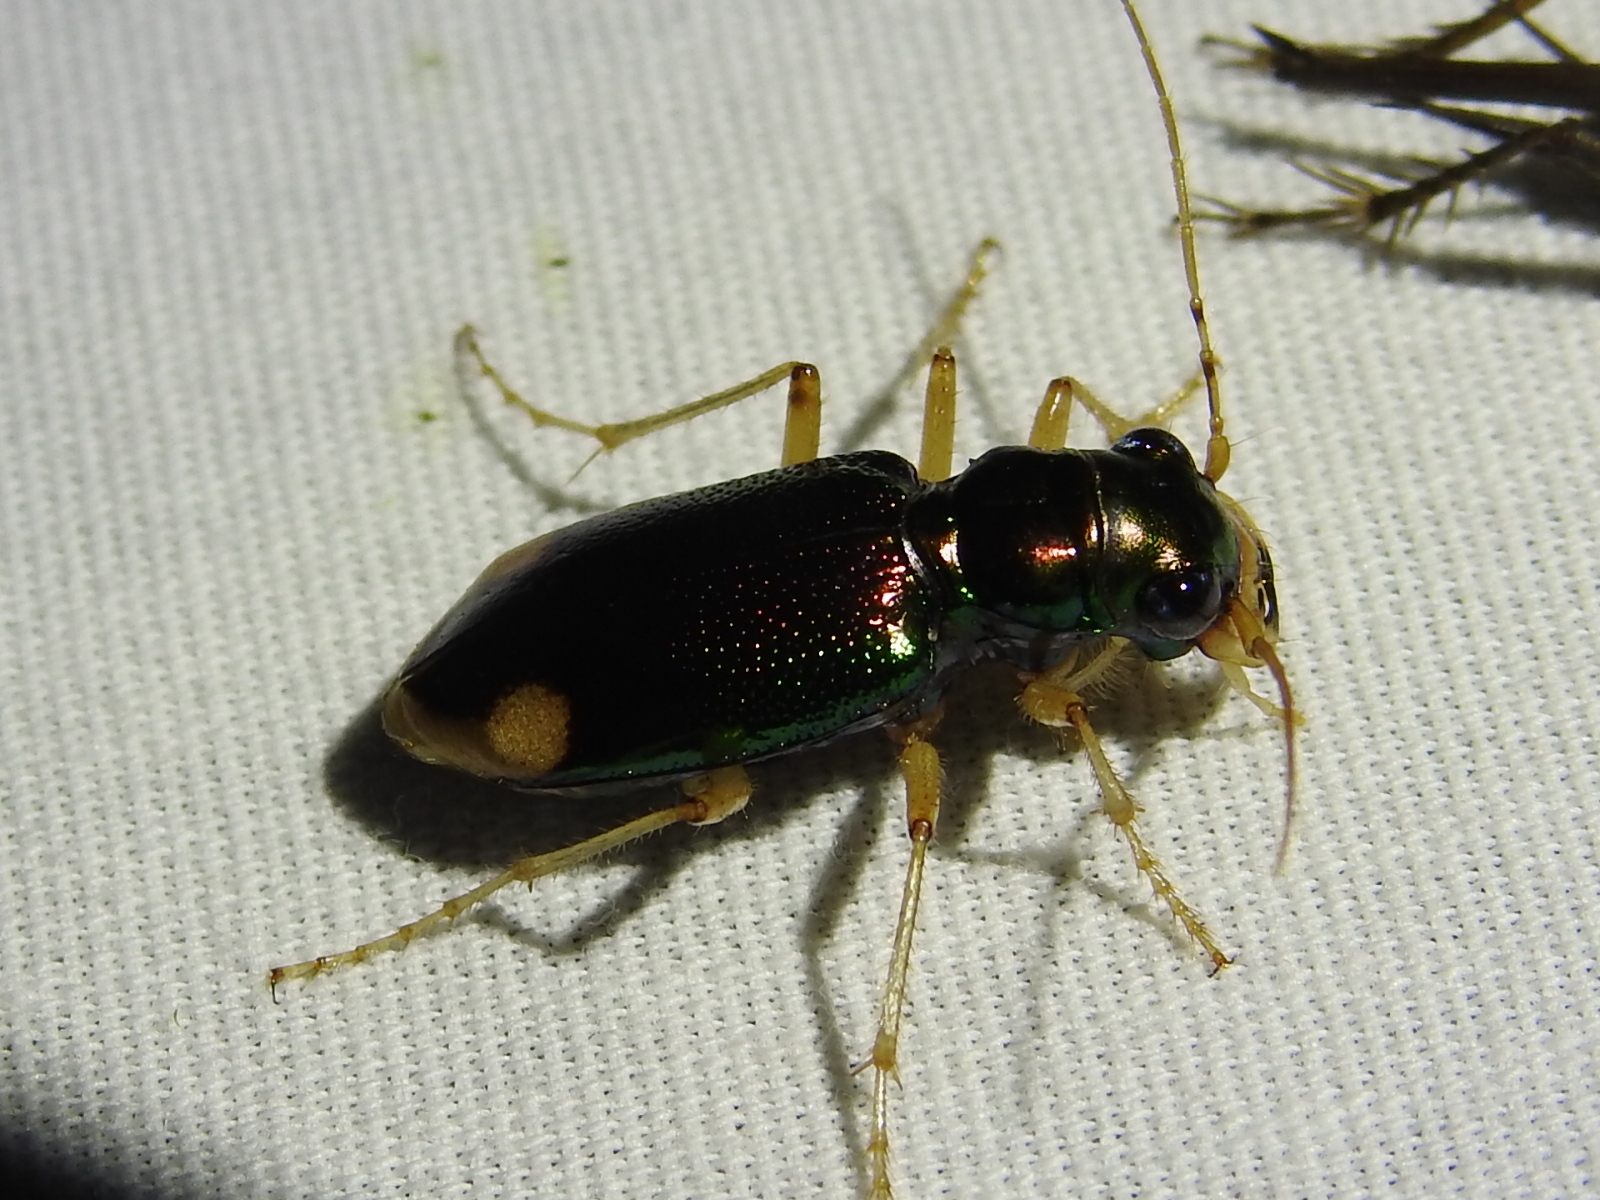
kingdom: Animalia
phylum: Arthropoda
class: Insecta
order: Coleoptera
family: Carabidae
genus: Tetracha
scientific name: Tetracha carolina
